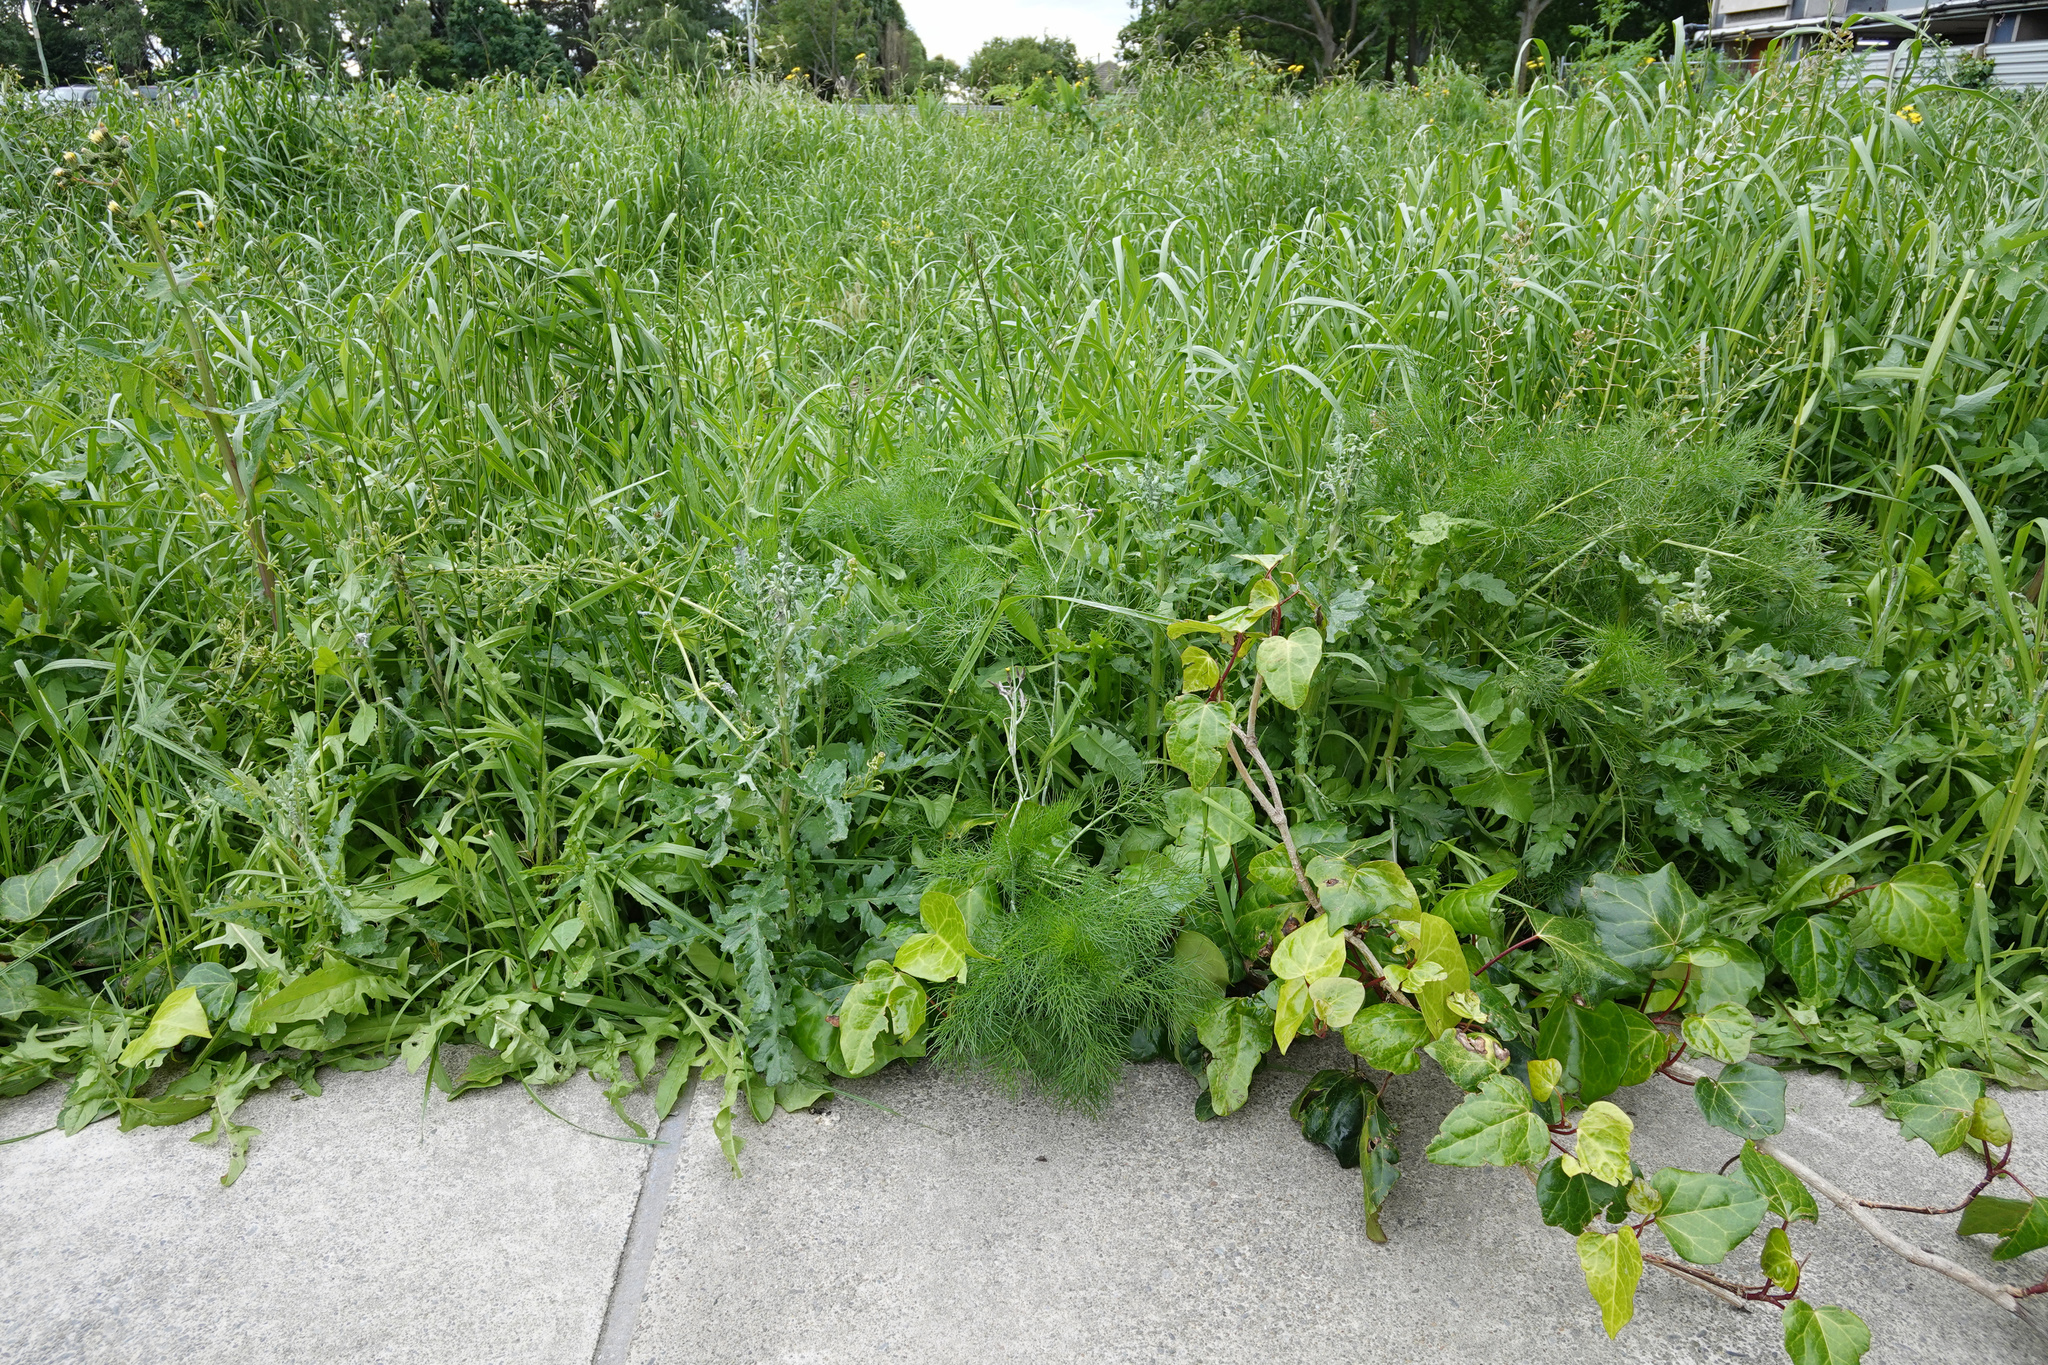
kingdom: Plantae
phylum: Tracheophyta
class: Magnoliopsida
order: Asterales
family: Asteraceae
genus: Senecio
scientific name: Senecio glomeratus
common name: Cutleaf burnweed
